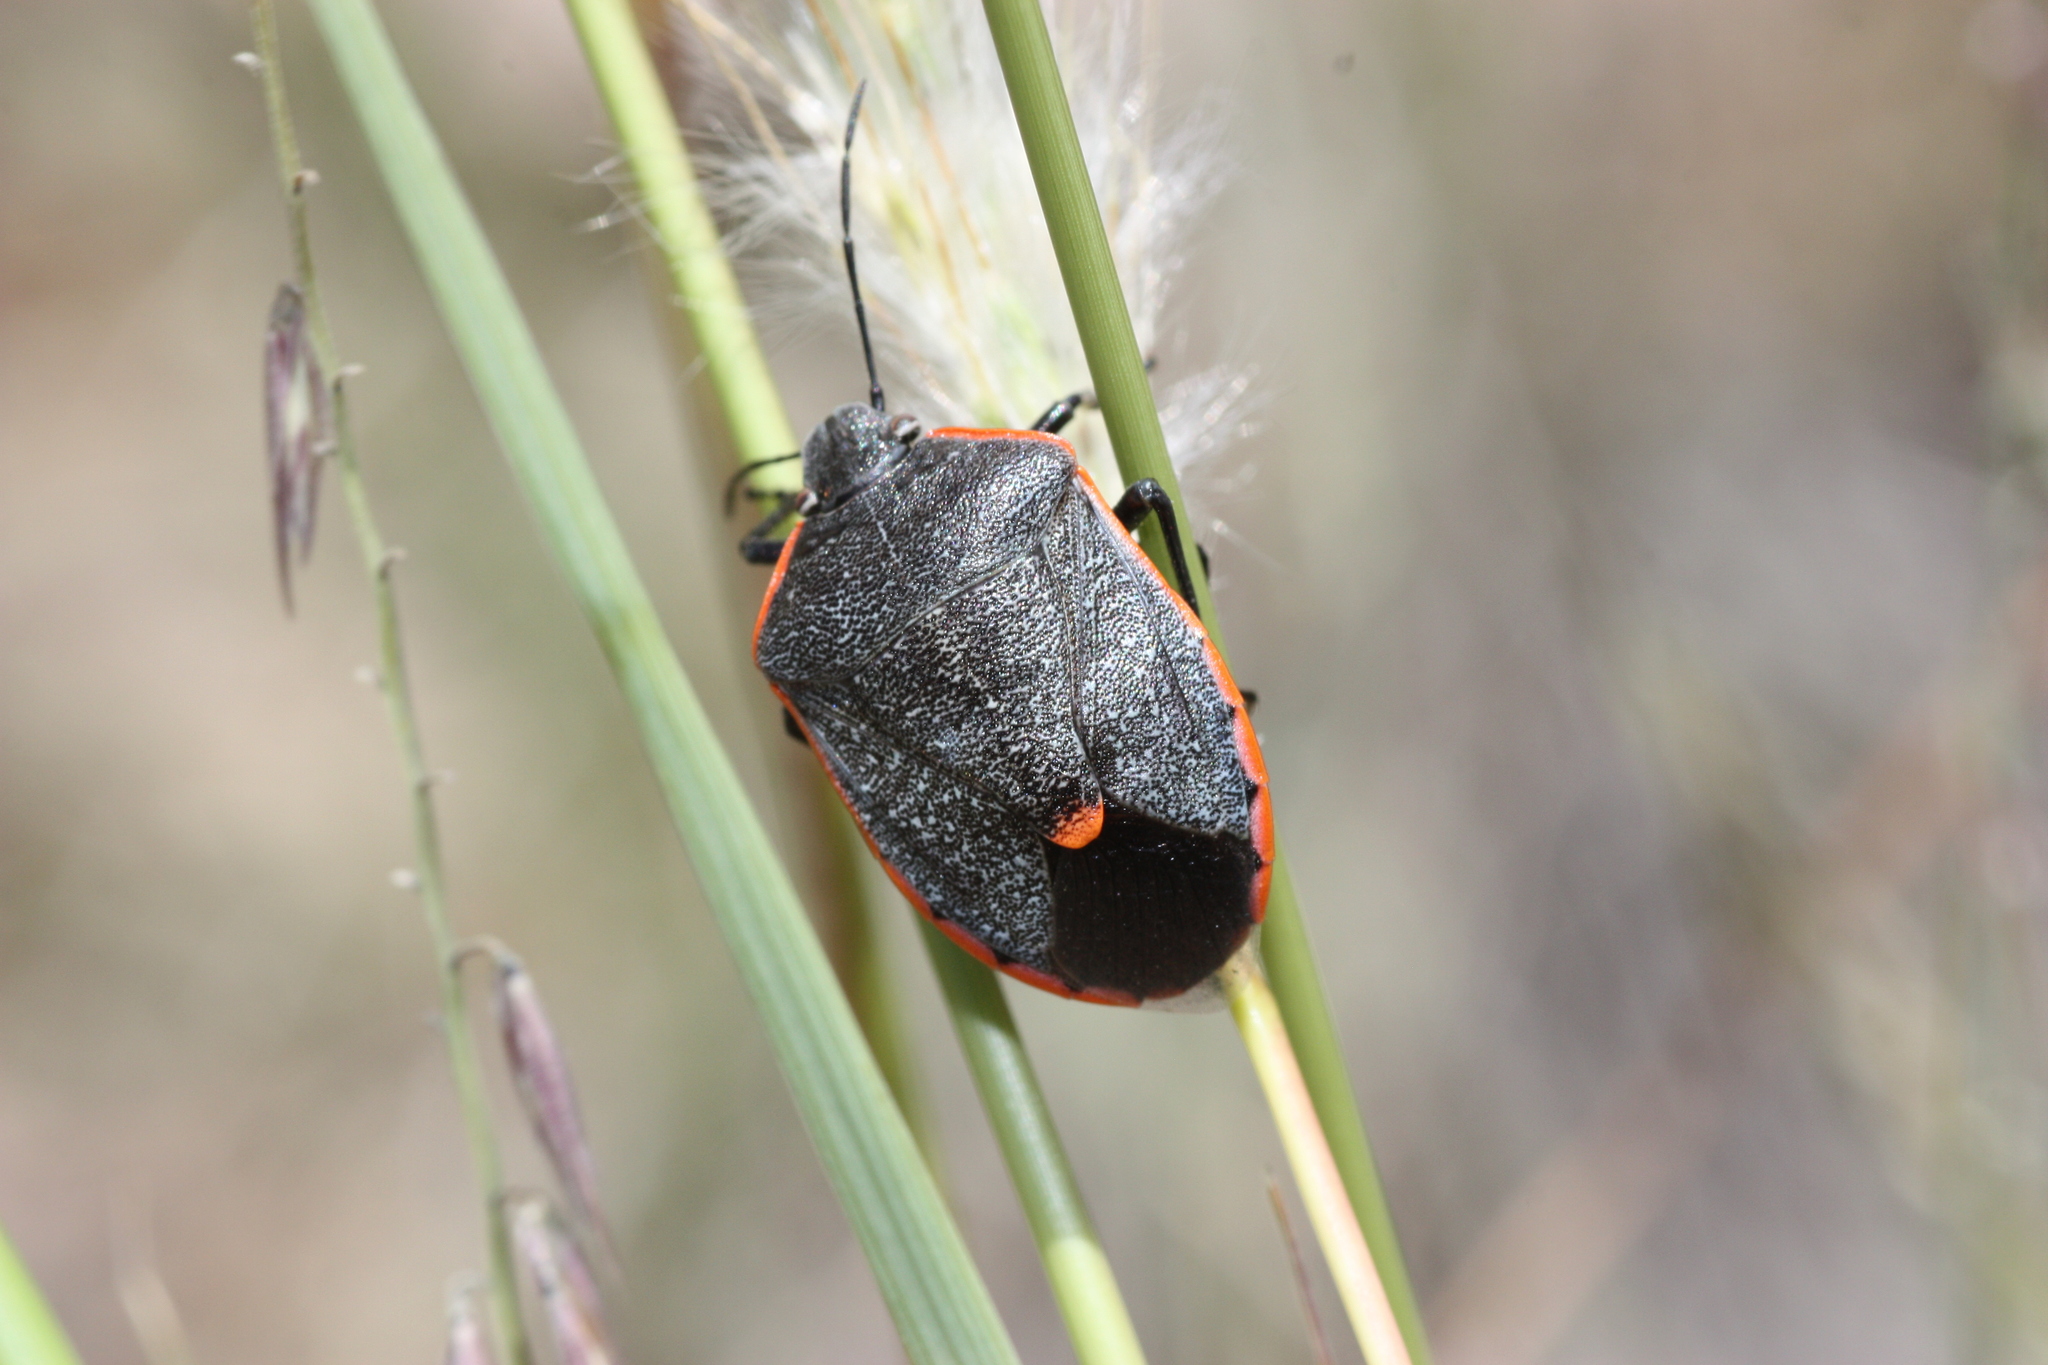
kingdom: Animalia
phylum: Arthropoda
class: Insecta
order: Hemiptera
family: Pentatomidae
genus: Chlorochroa
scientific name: Chlorochroa ligata
